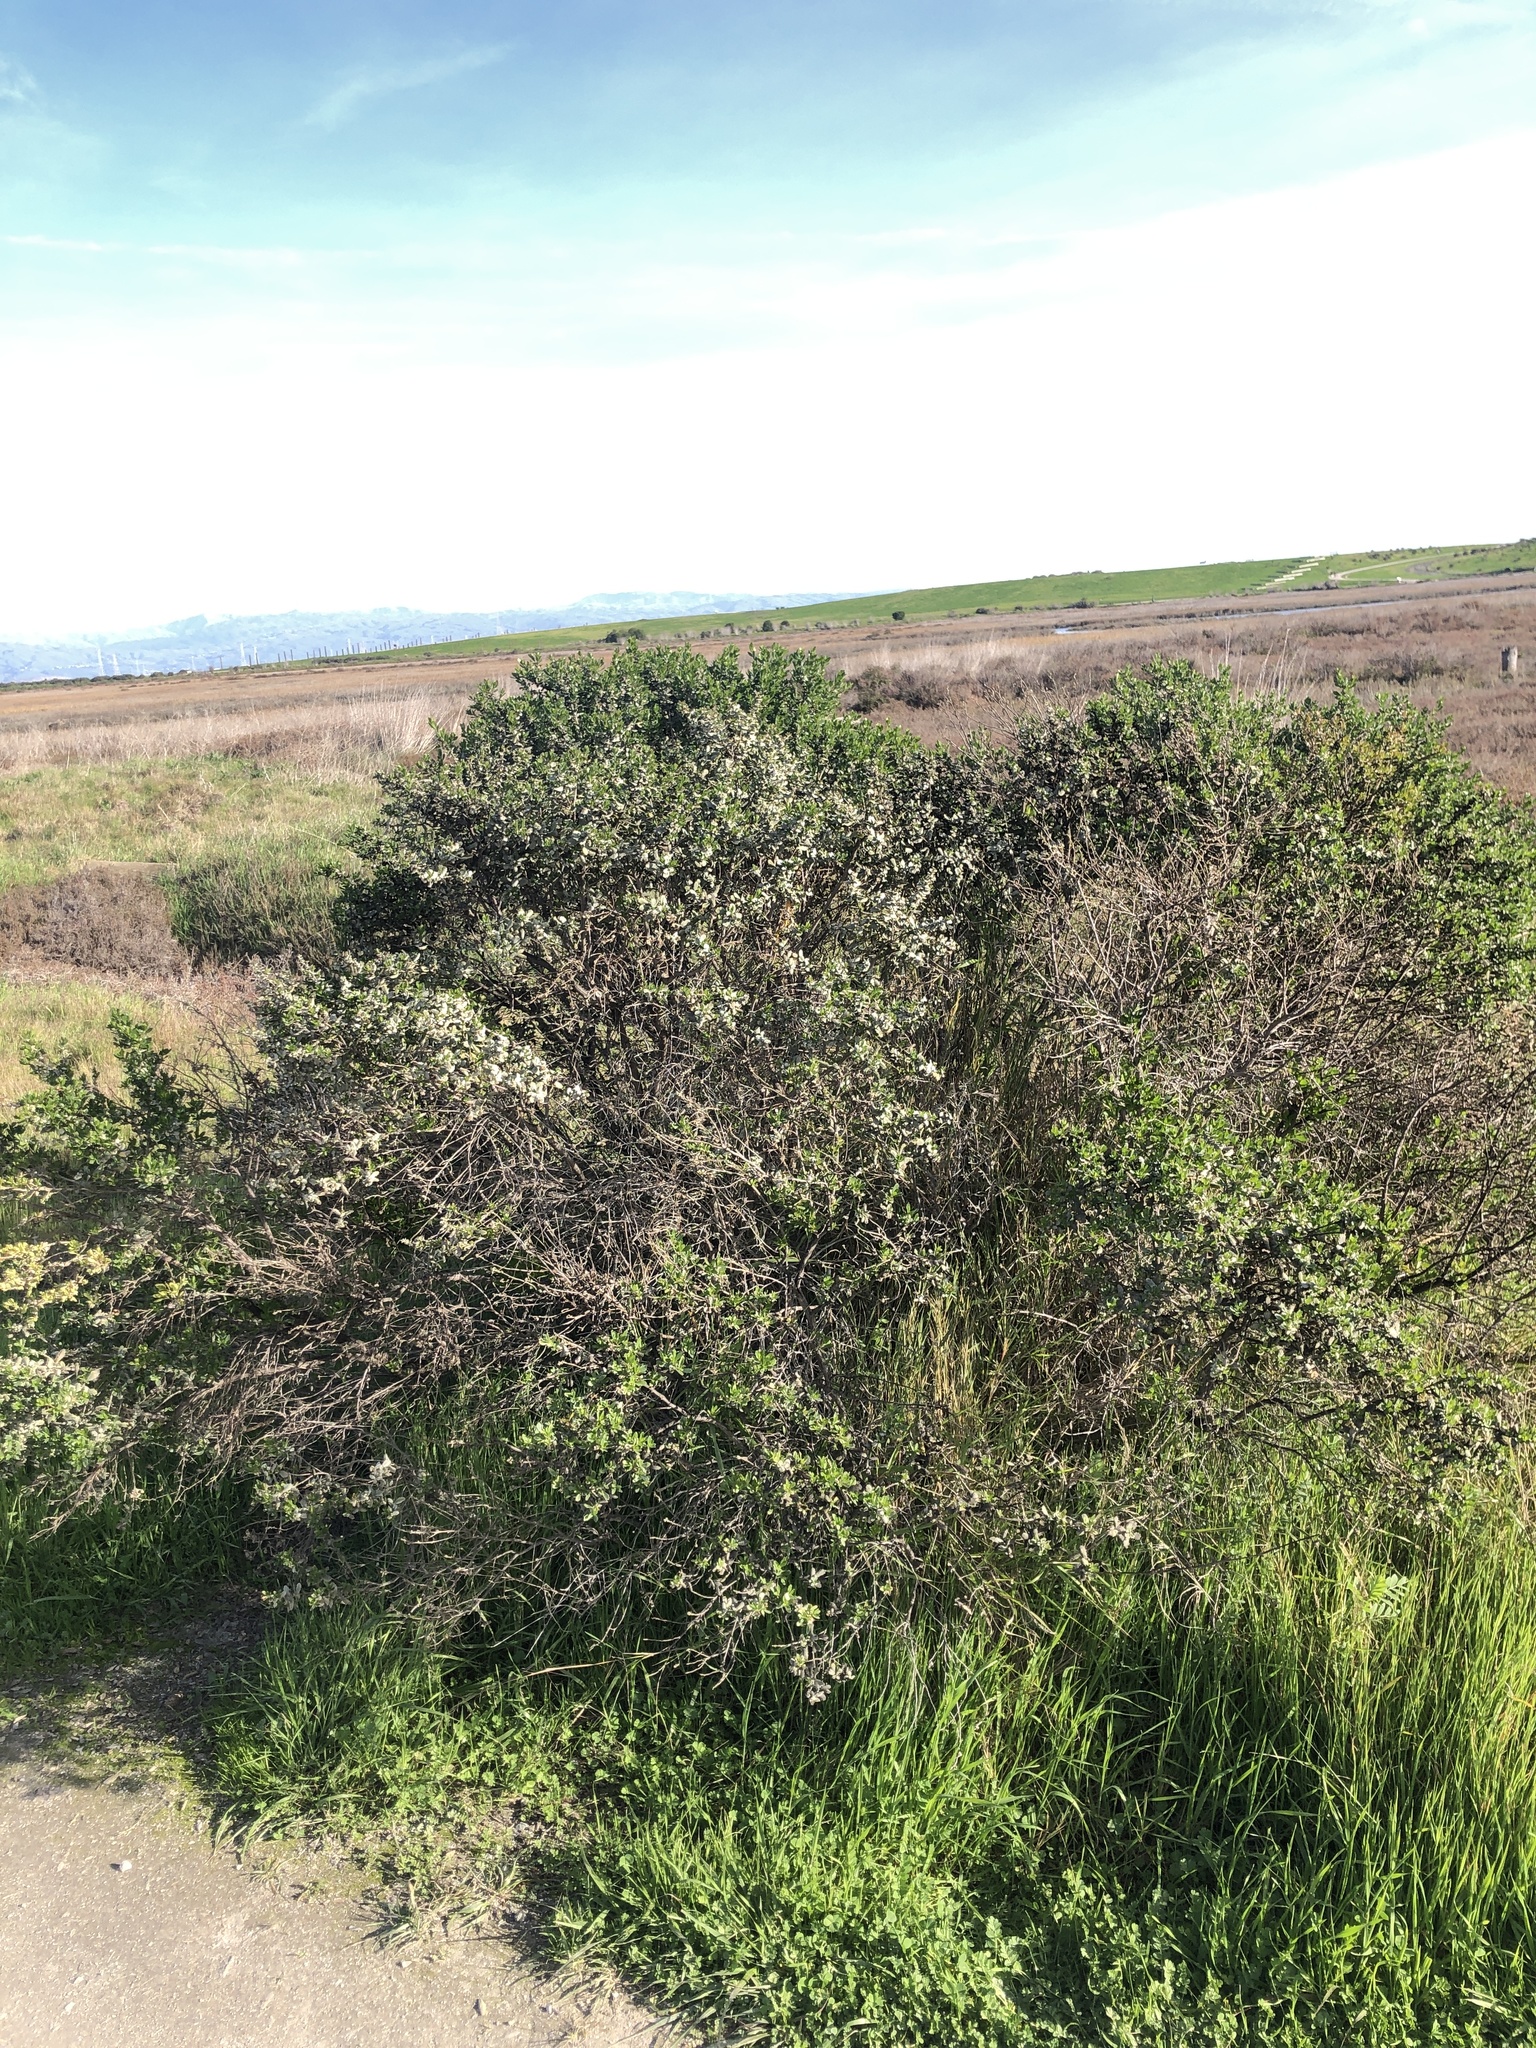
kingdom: Fungi
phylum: Basidiomycota
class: Pucciniomycetes
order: Pucciniales
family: Pucciniaceae
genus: Eriosporangium
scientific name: Eriosporangium evadens
